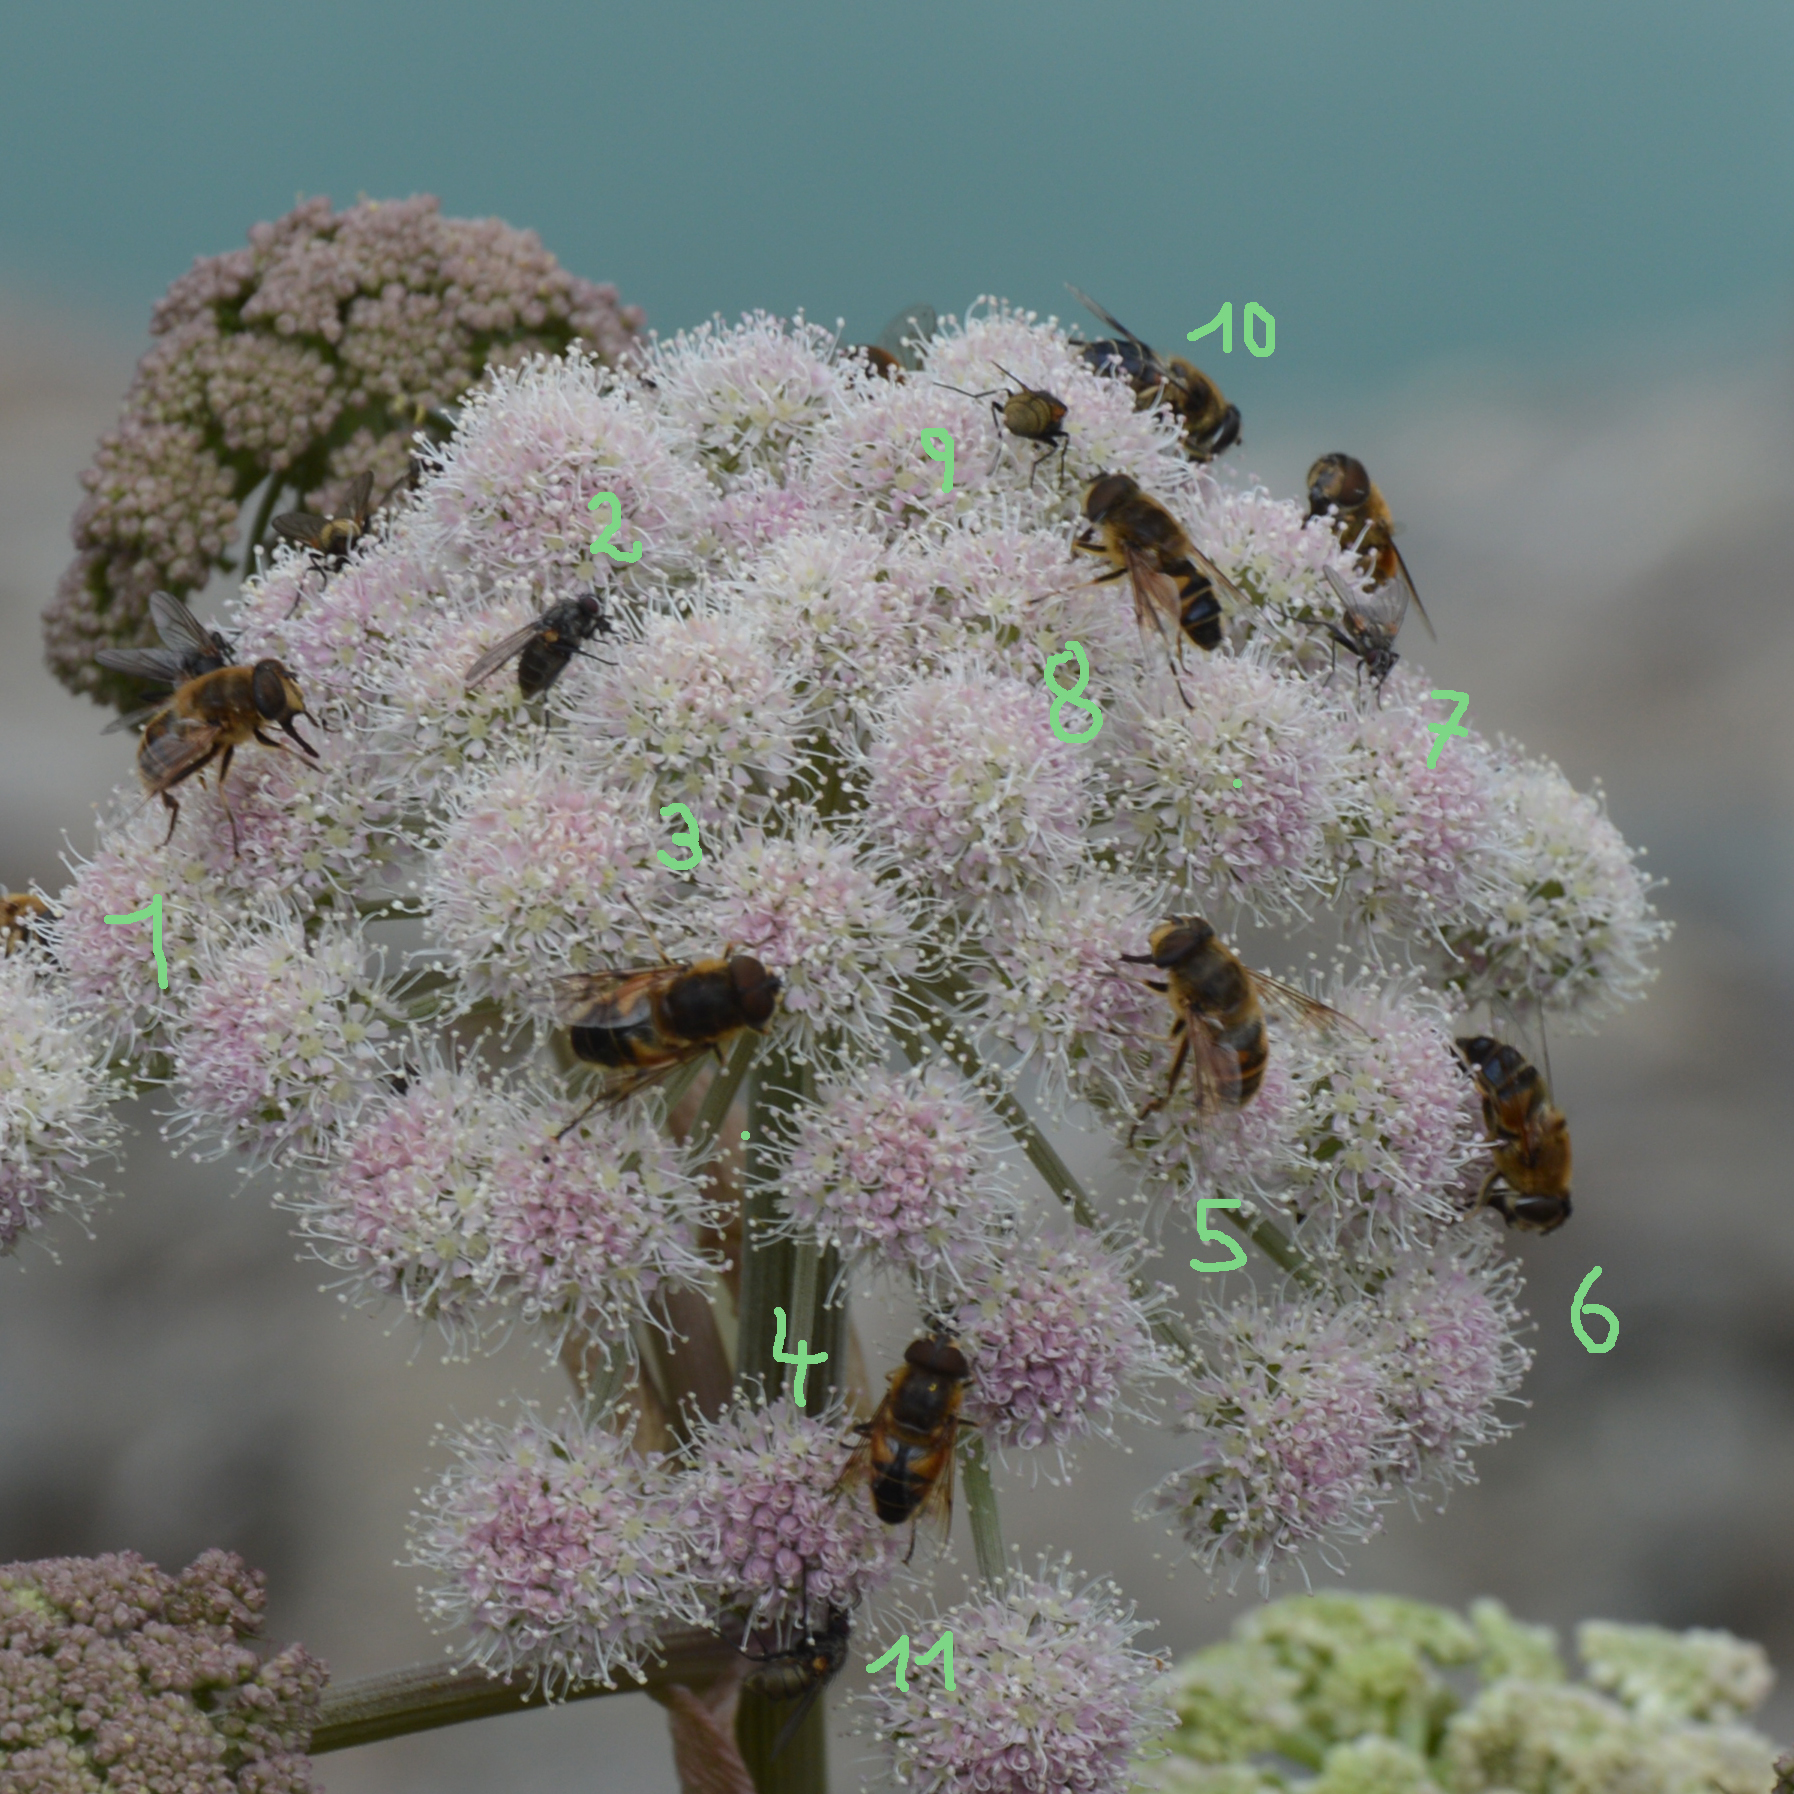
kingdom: Animalia
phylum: Arthropoda
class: Insecta
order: Diptera
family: Syrphidae
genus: Eristalis
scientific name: Eristalis pertinax
